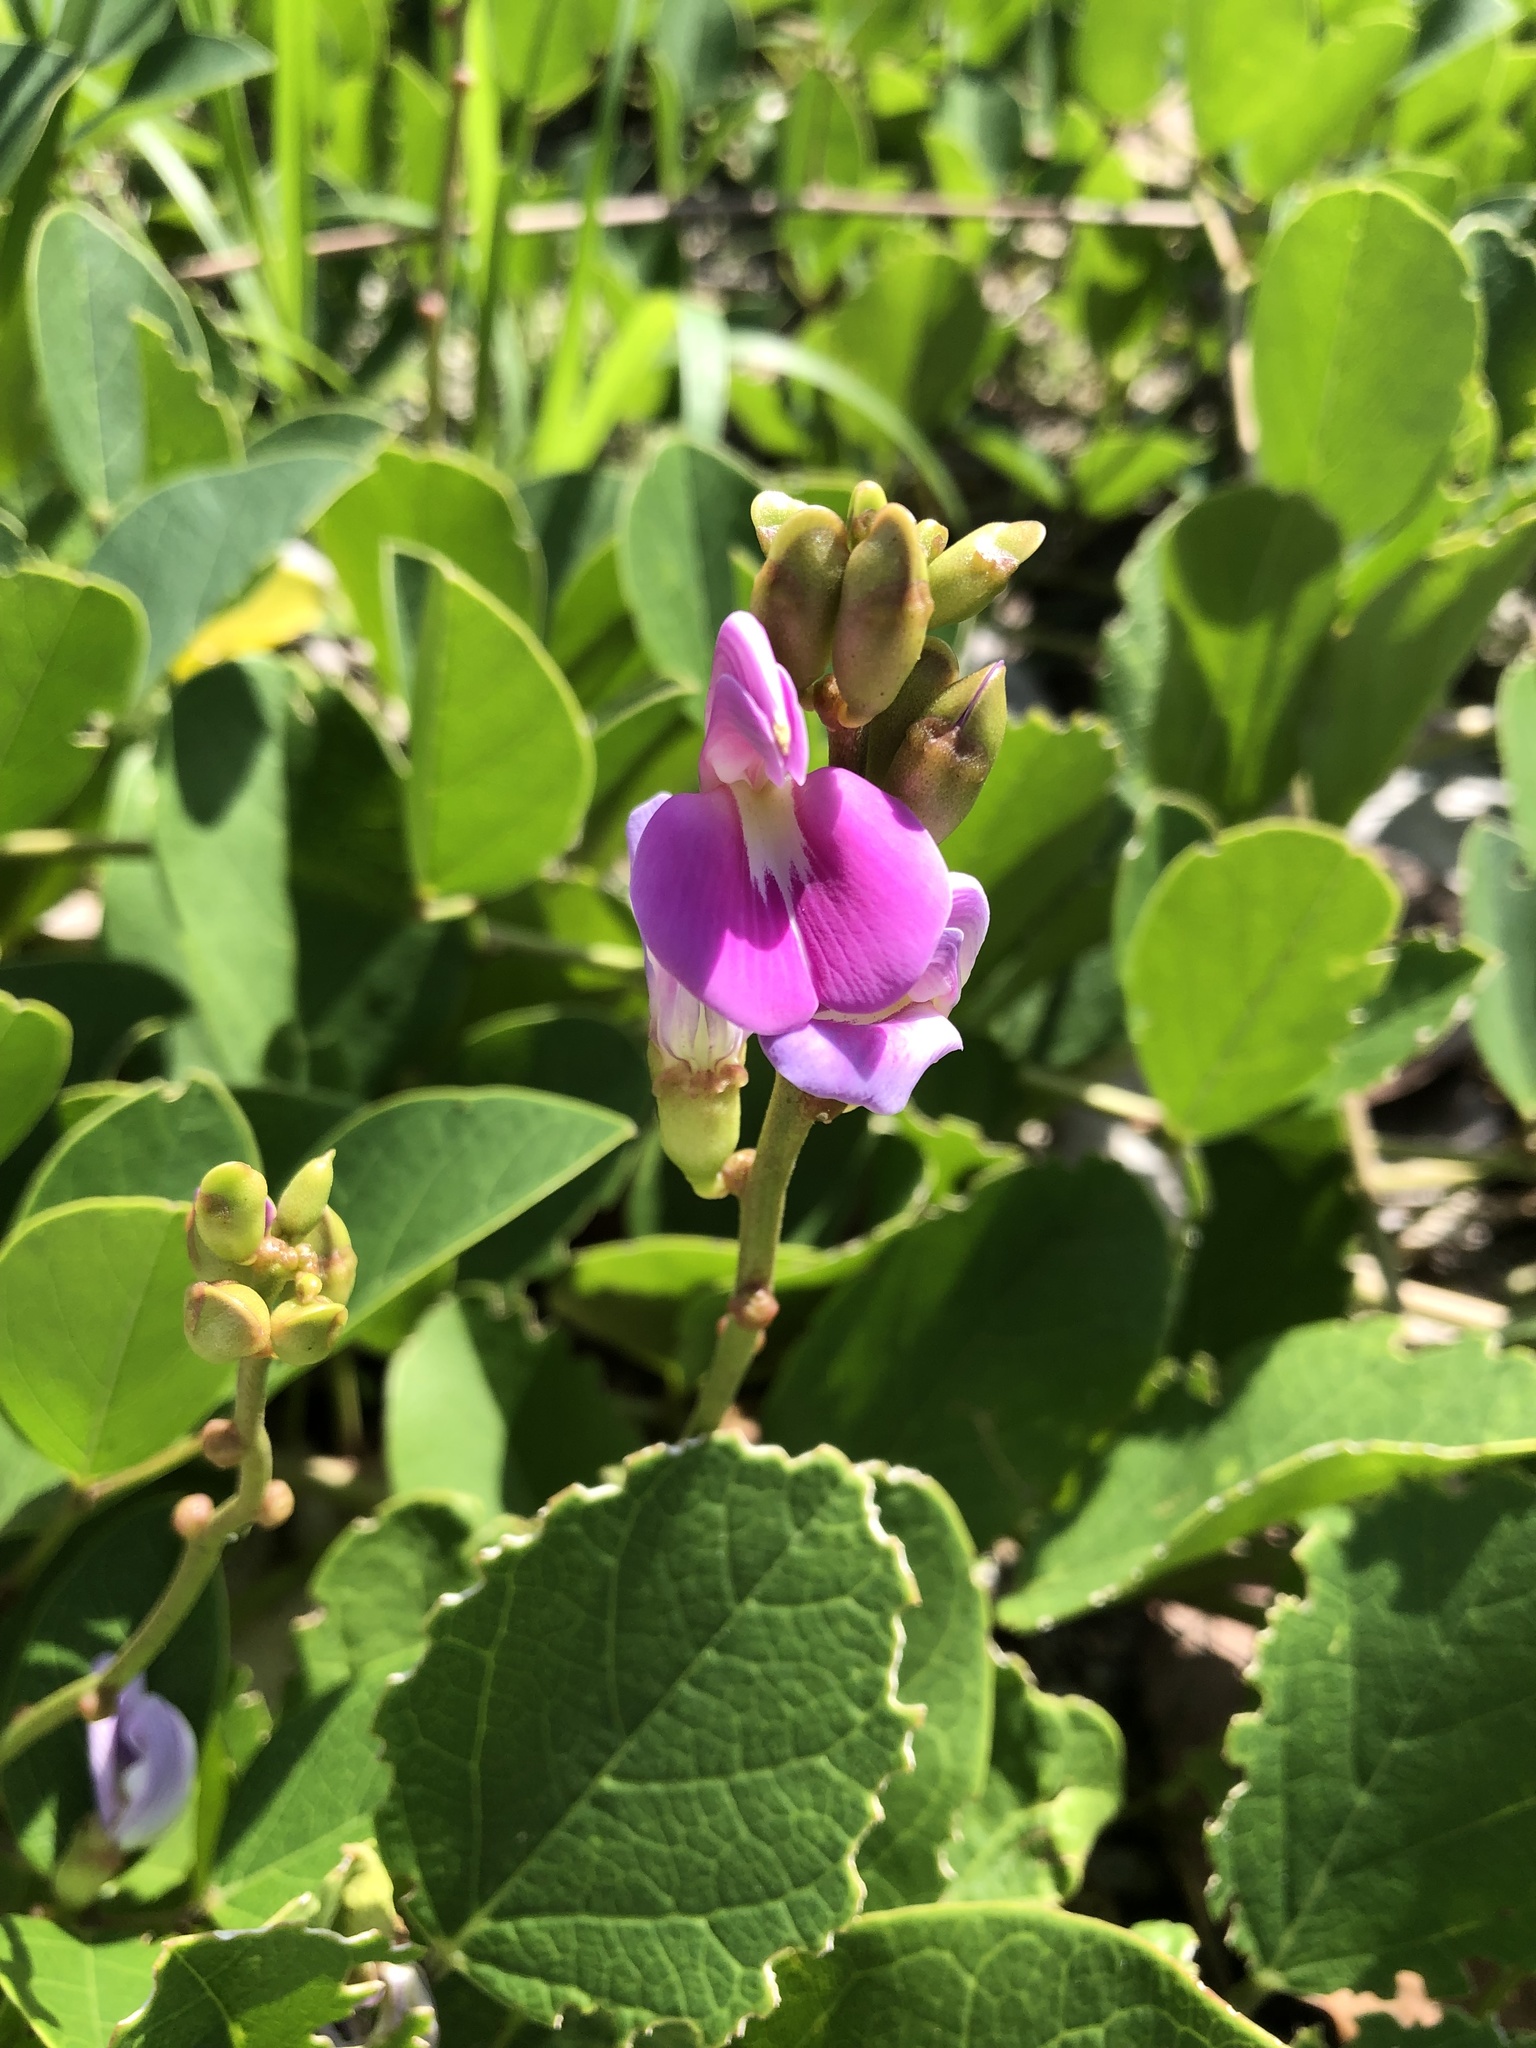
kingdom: Plantae
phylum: Tracheophyta
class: Magnoliopsida
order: Fabales
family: Fabaceae
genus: Canavalia
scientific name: Canavalia rosea
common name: Beach-bean
